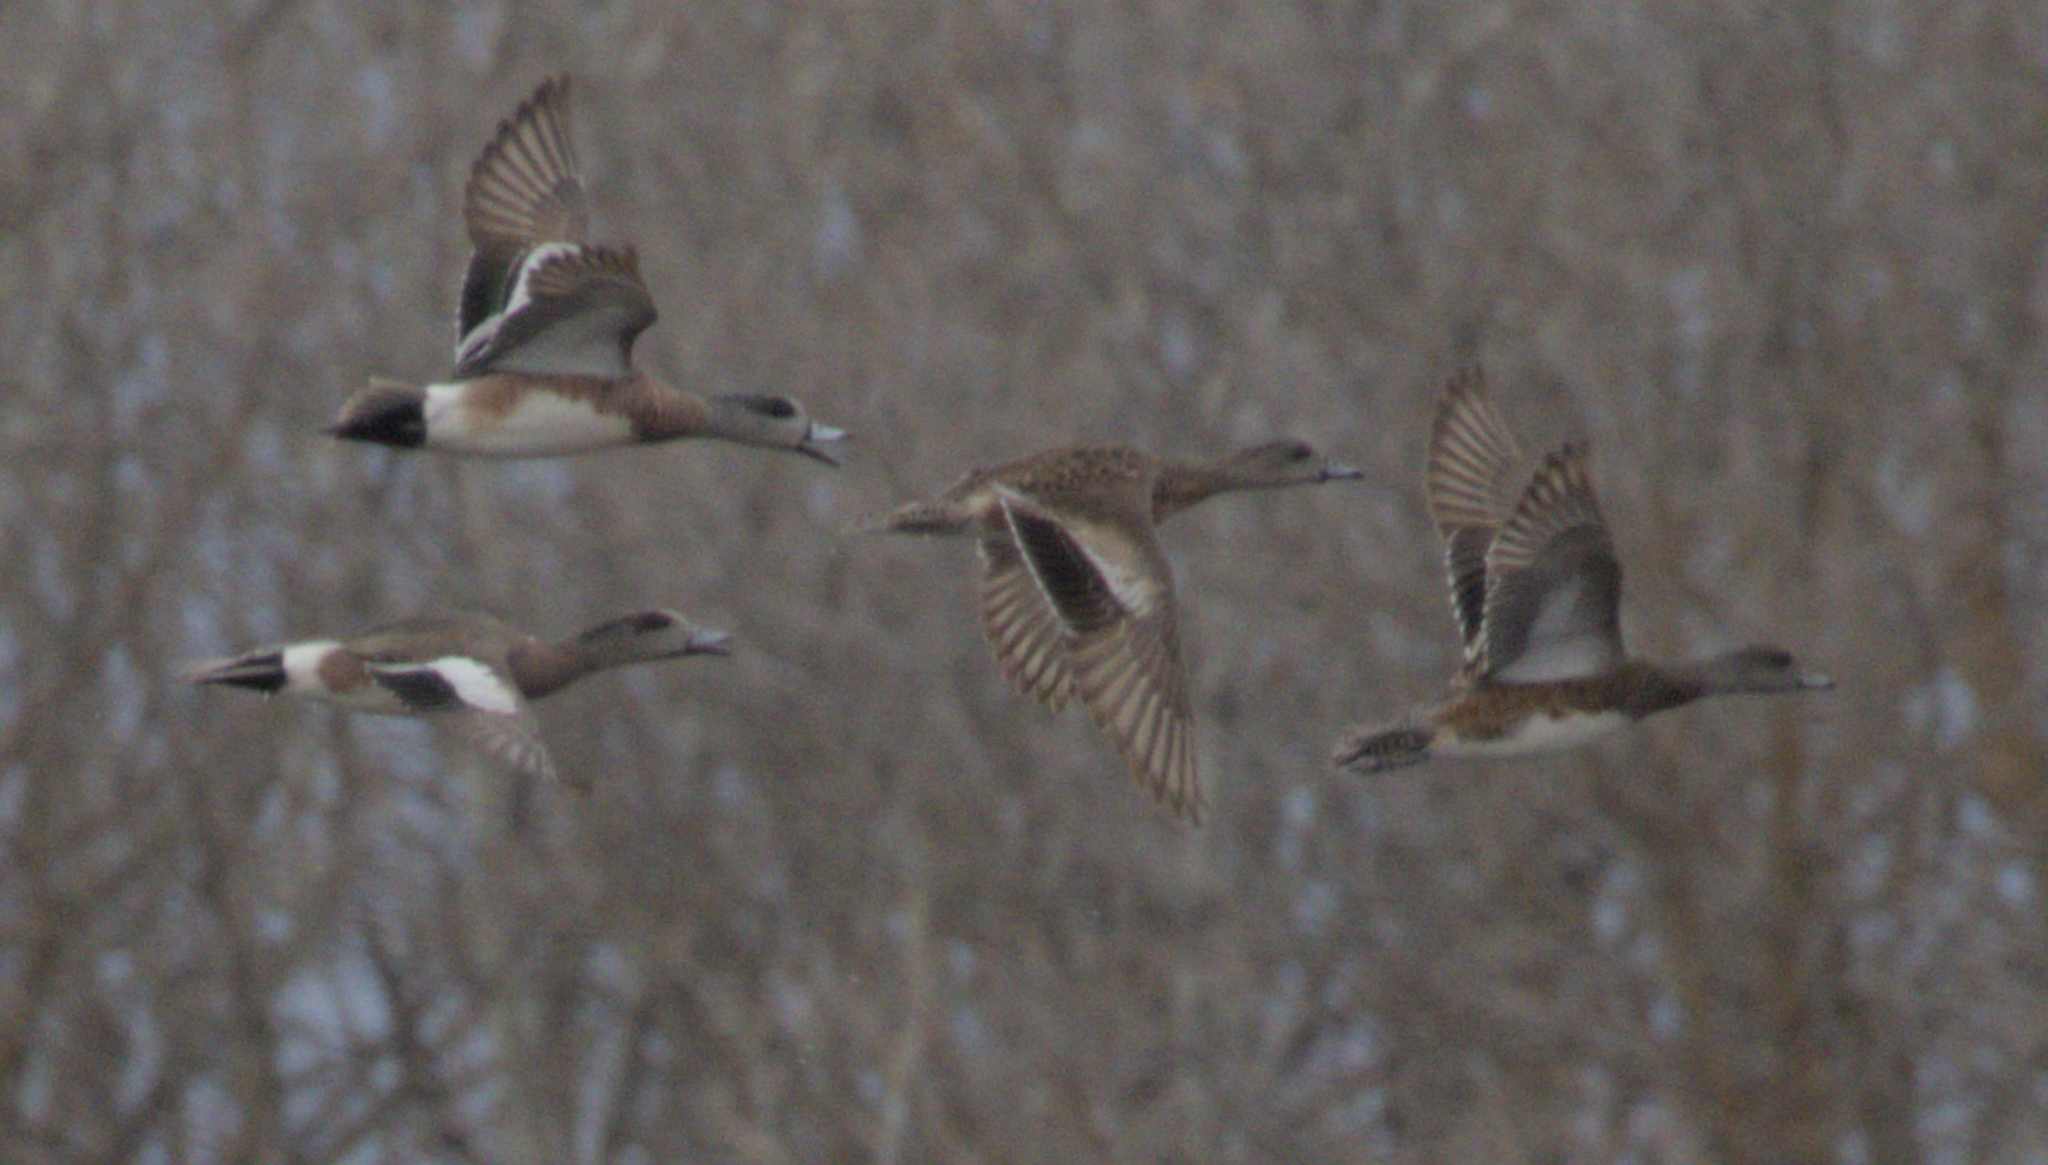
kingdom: Animalia
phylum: Chordata
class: Aves
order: Anseriformes
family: Anatidae
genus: Mareca
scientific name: Mareca americana
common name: American wigeon
